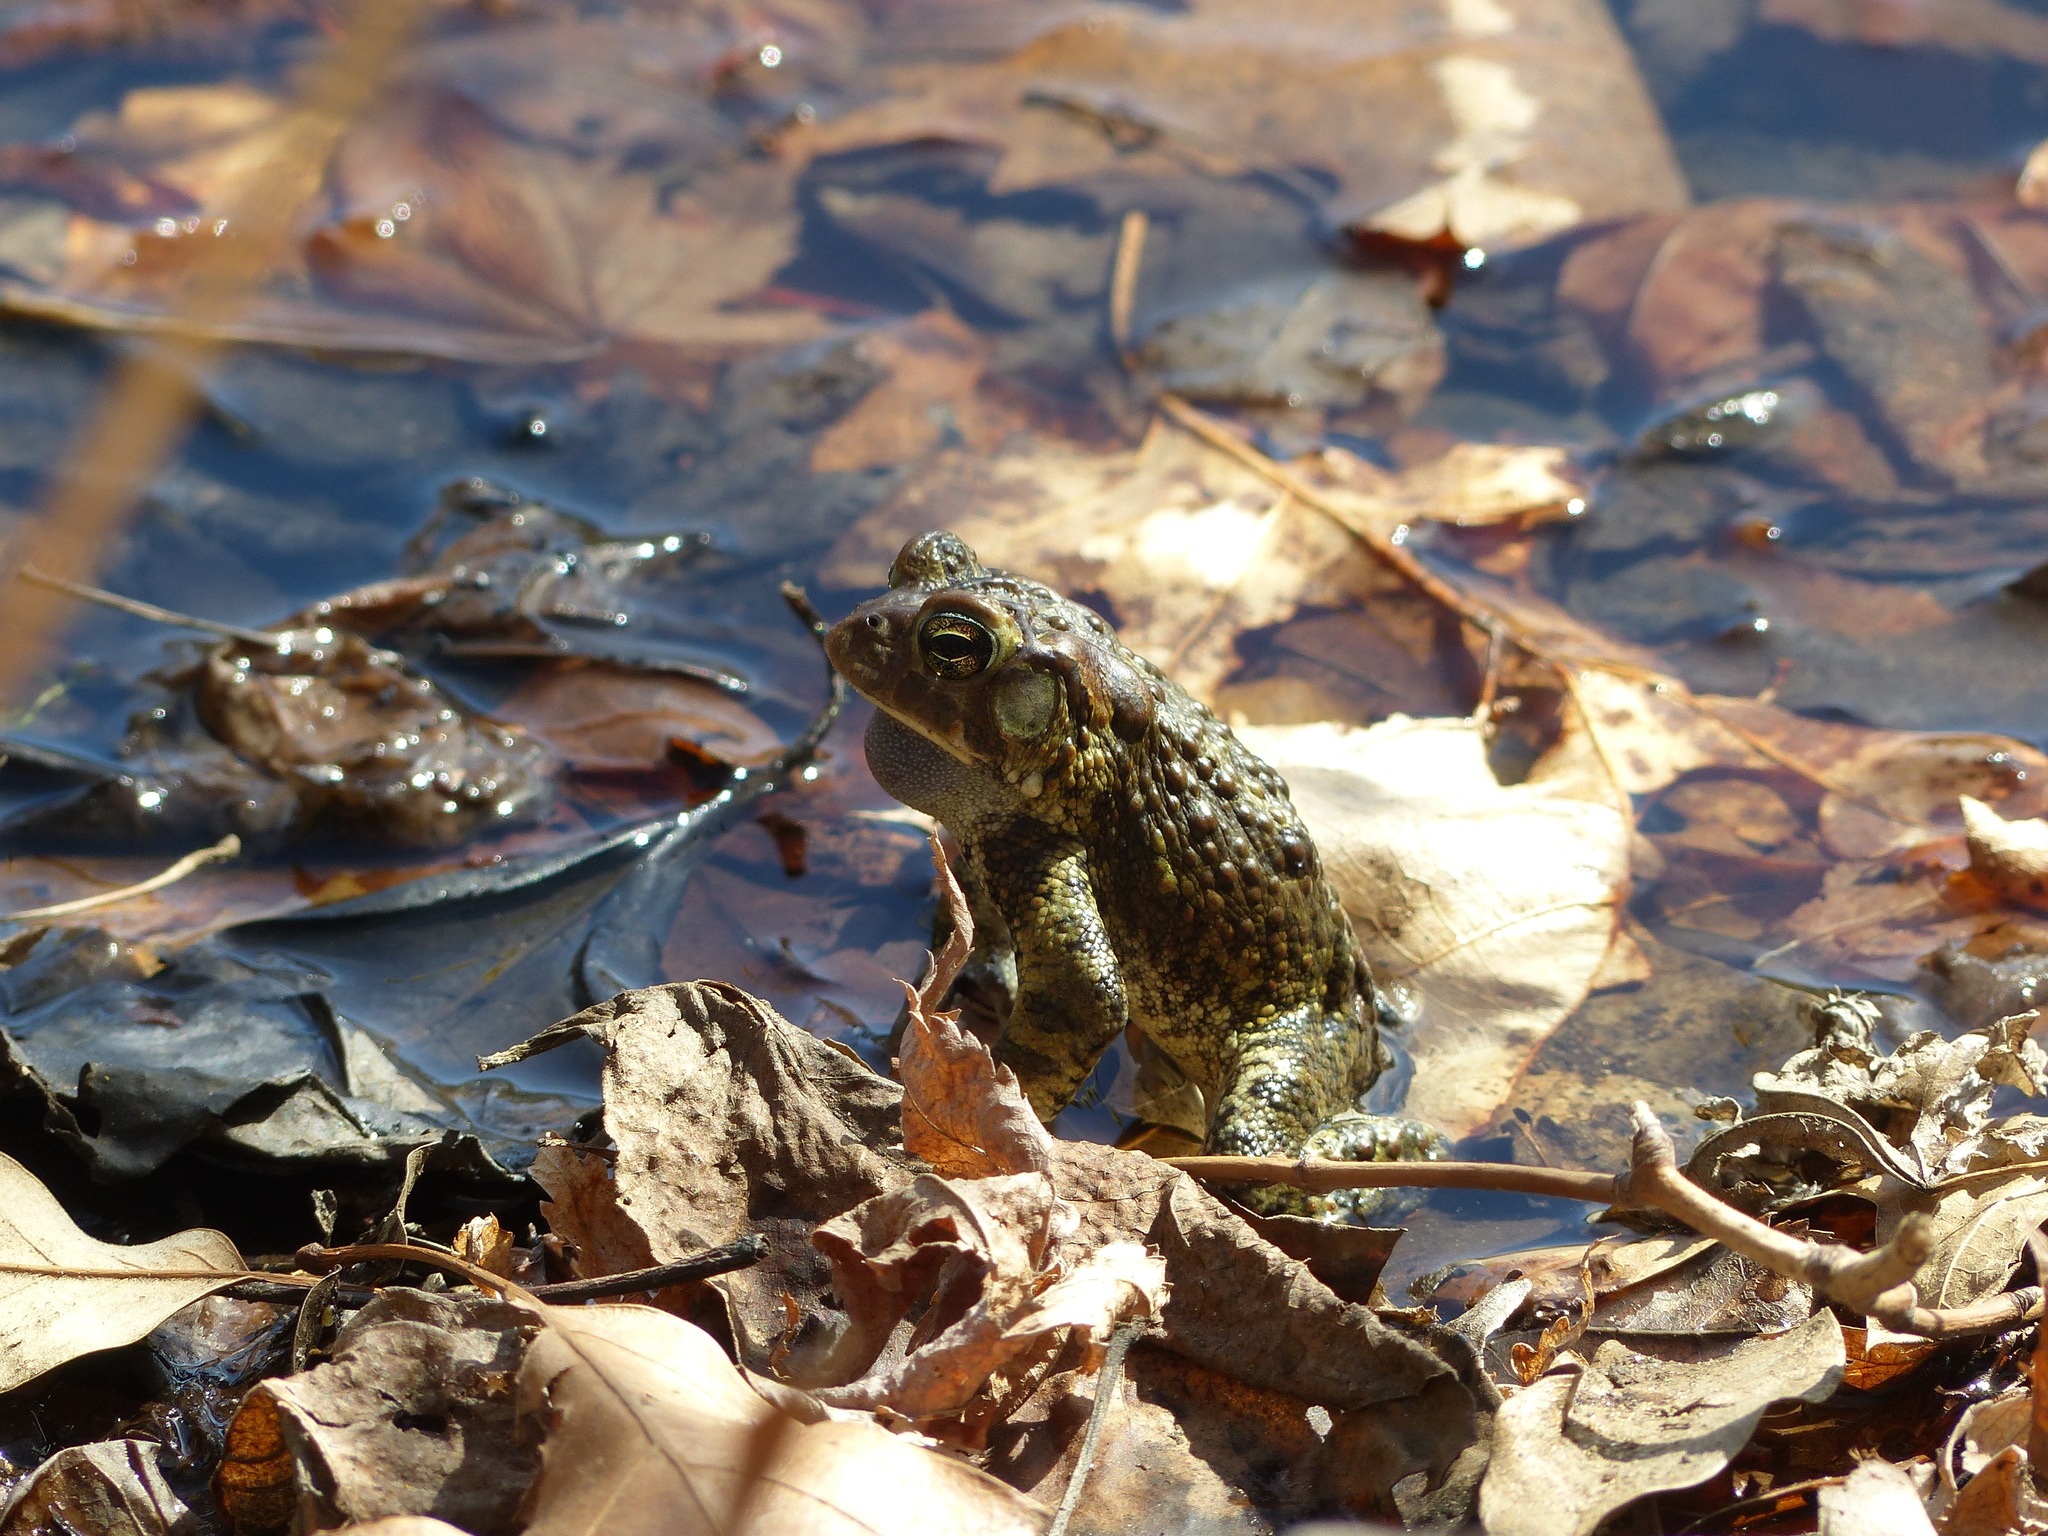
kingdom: Animalia
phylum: Chordata
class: Amphibia
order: Anura
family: Bufonidae
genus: Anaxyrus
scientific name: Anaxyrus americanus
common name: American toad
